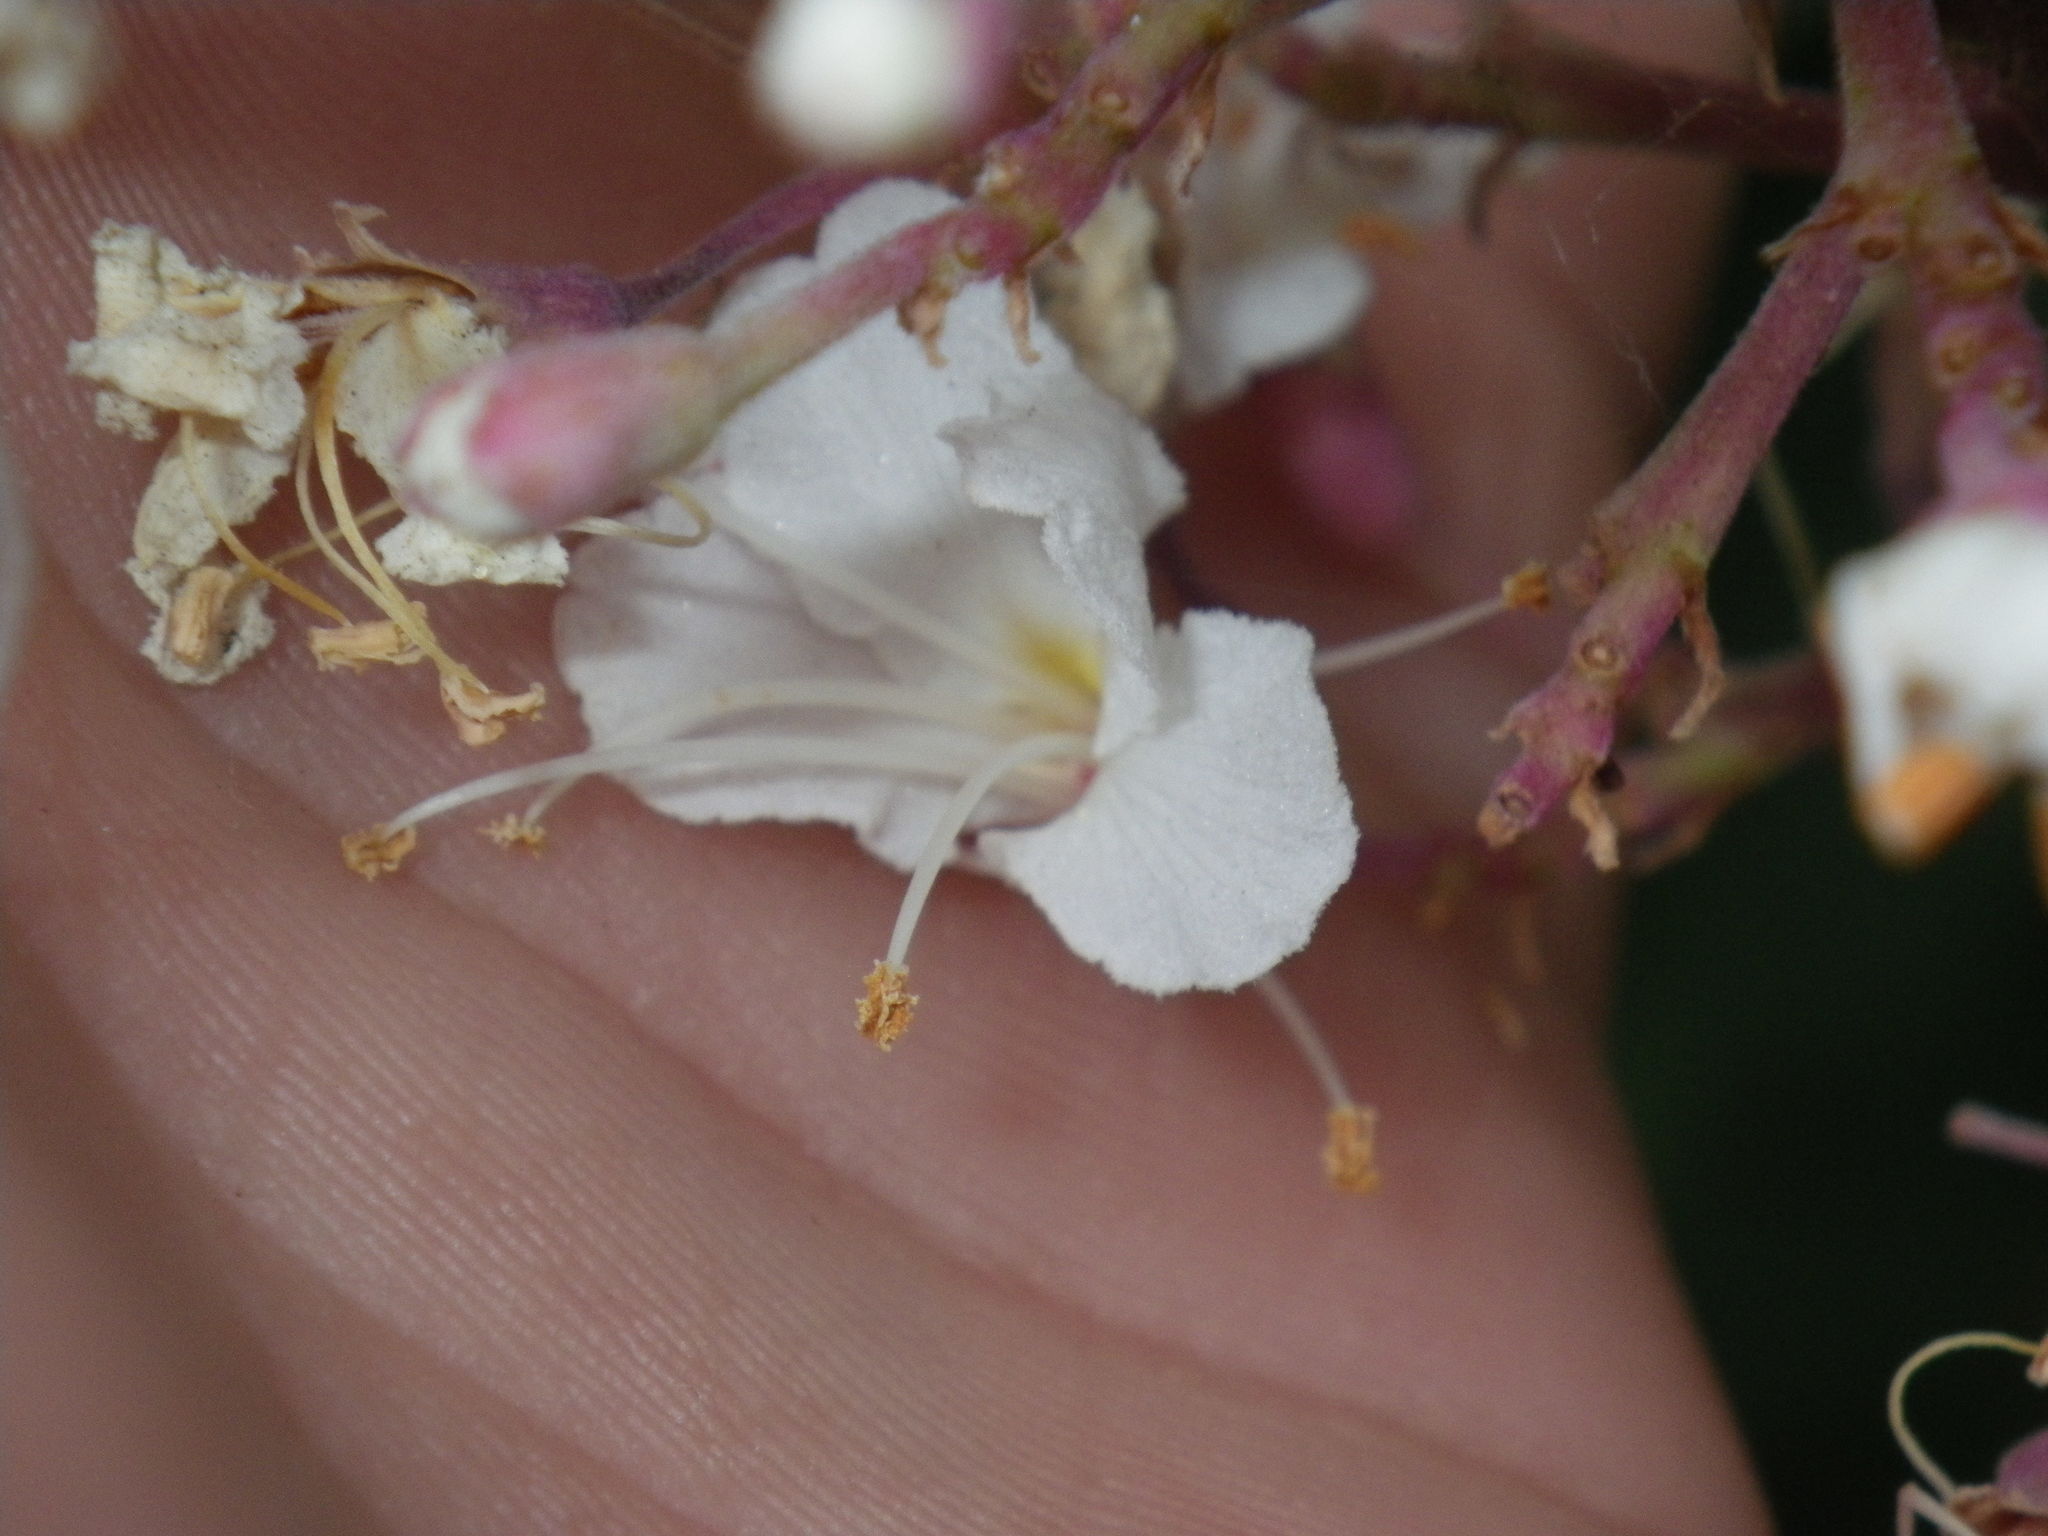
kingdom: Plantae
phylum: Tracheophyta
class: Magnoliopsida
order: Sapindales
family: Sapindaceae
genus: Aesculus
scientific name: Aesculus californica
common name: California buckeye
